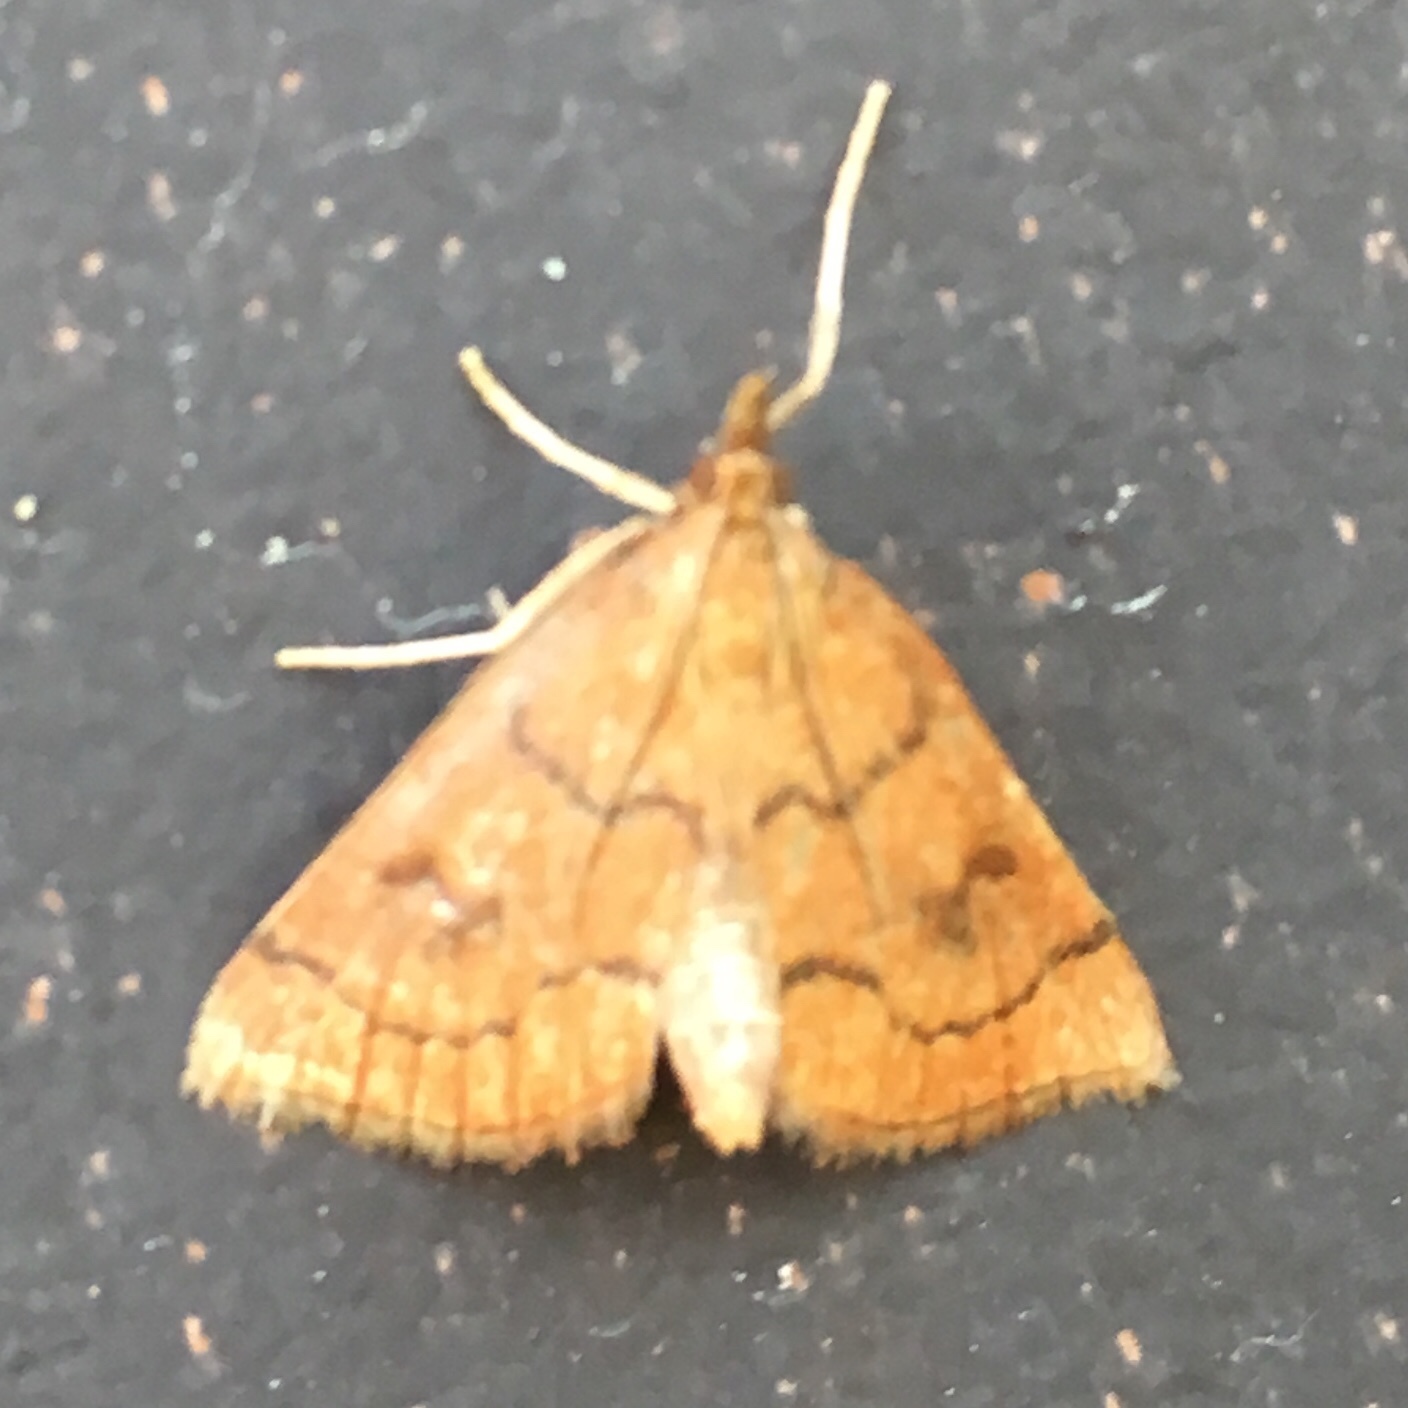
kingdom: Animalia
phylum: Arthropoda
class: Insecta
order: Lepidoptera
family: Crambidae
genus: Fumibotys
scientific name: Fumibotys fumalis
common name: Mint root borer moth
